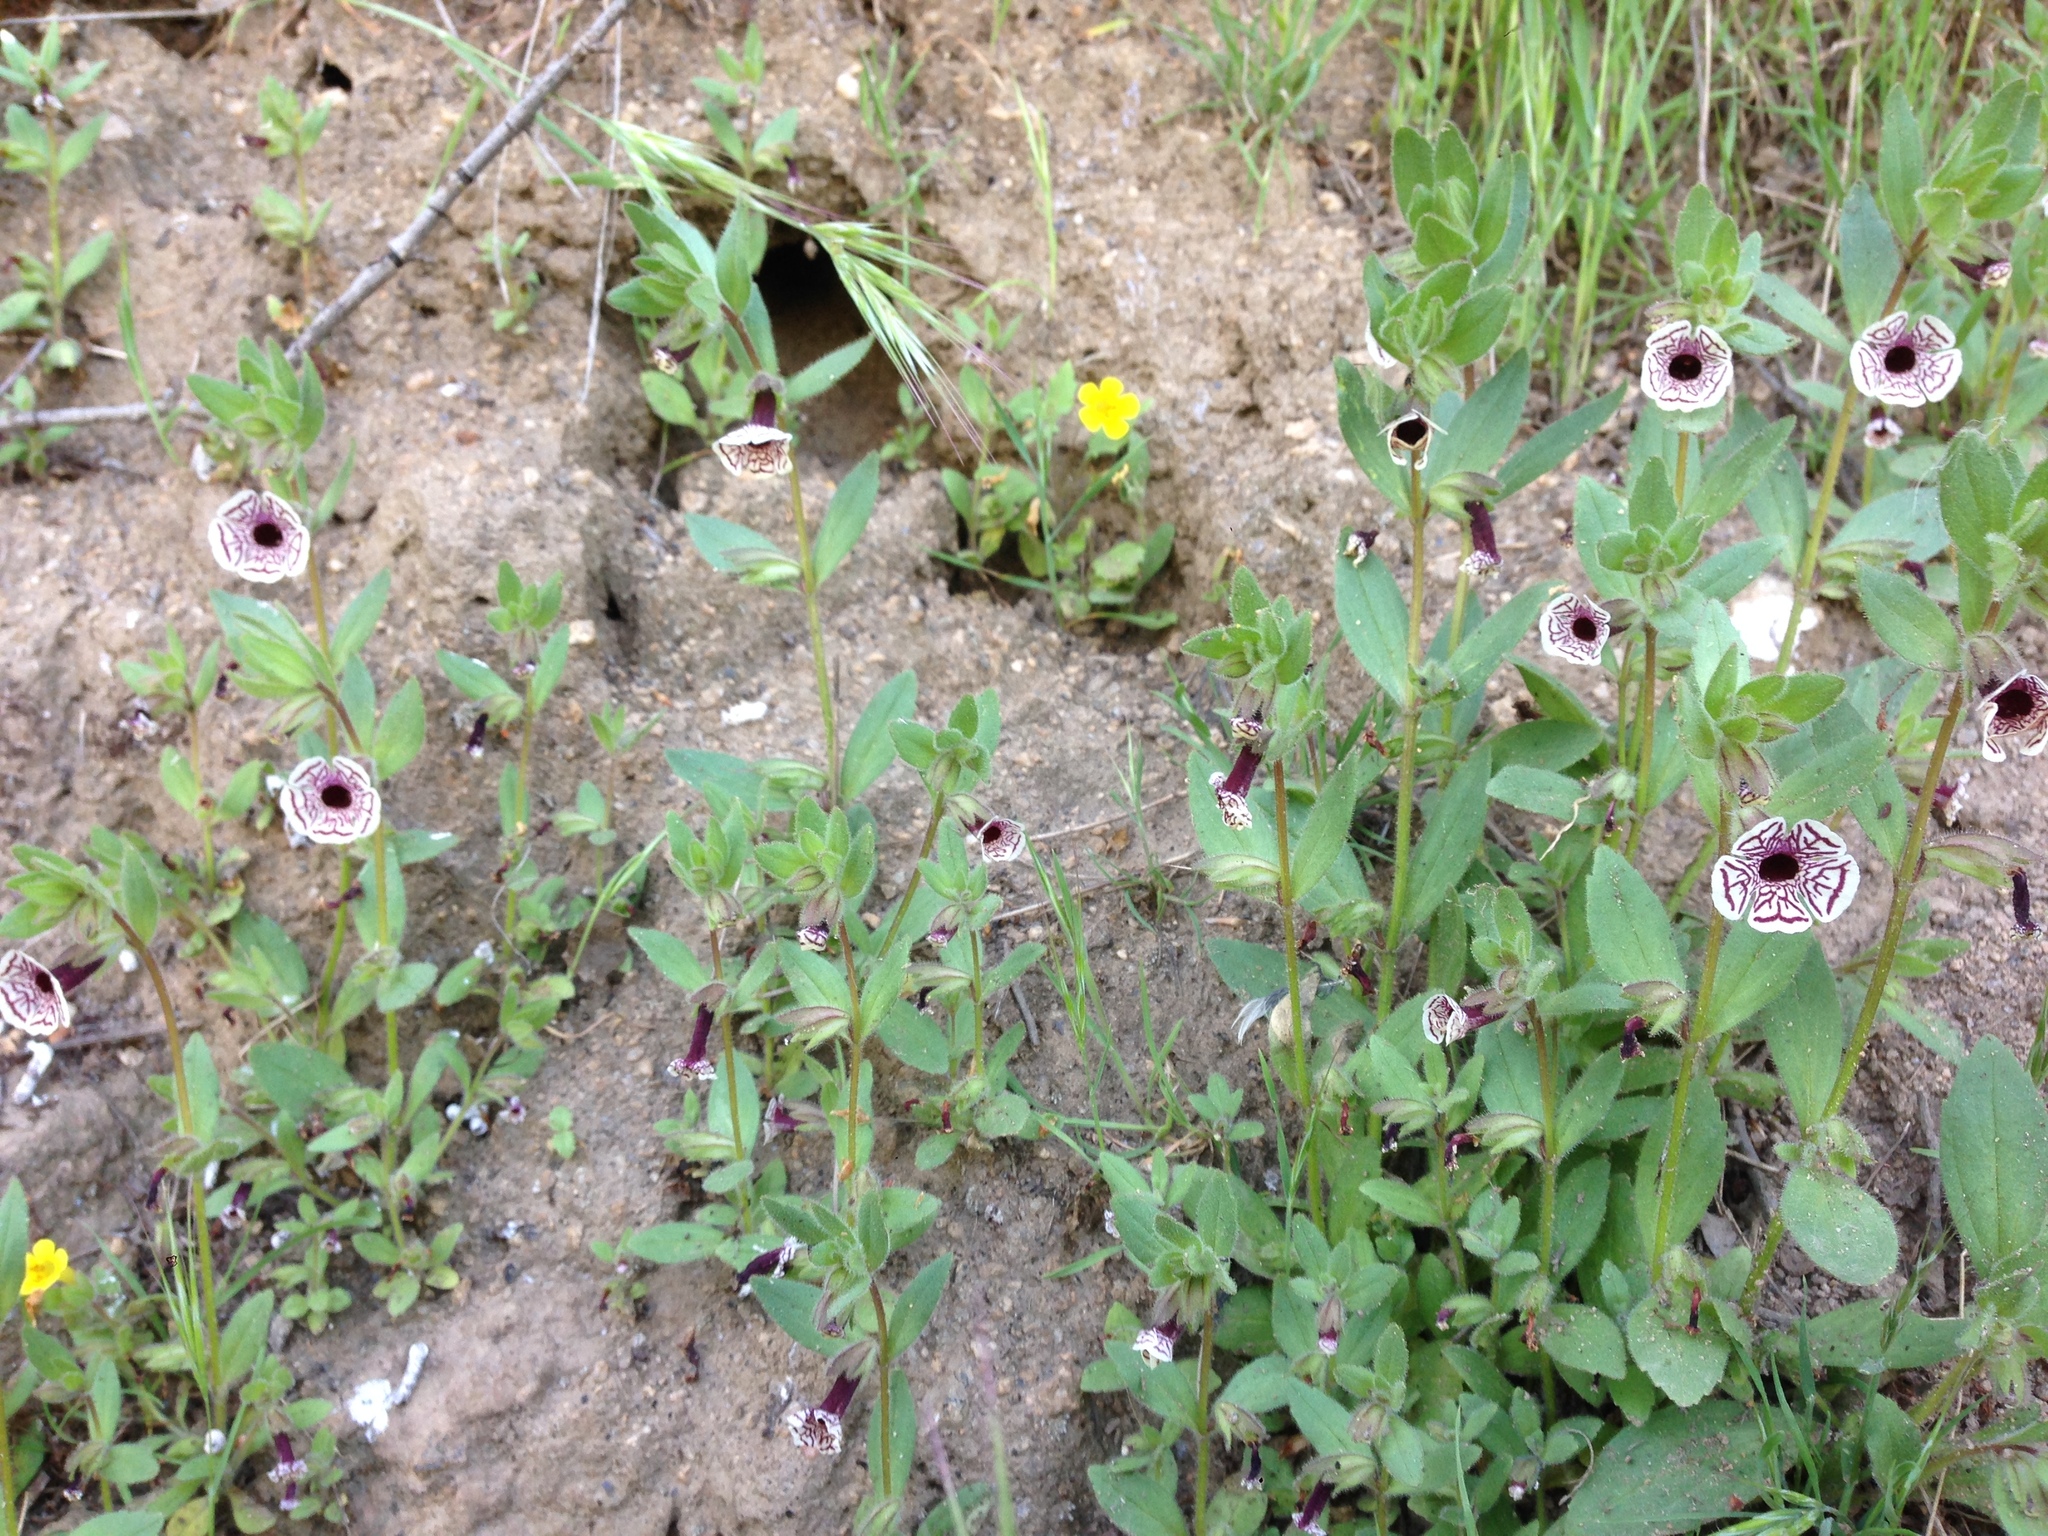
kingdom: Plantae
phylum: Tracheophyta
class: Magnoliopsida
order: Lamiales
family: Phrymaceae
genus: Diplacus
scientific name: Diplacus pictus
